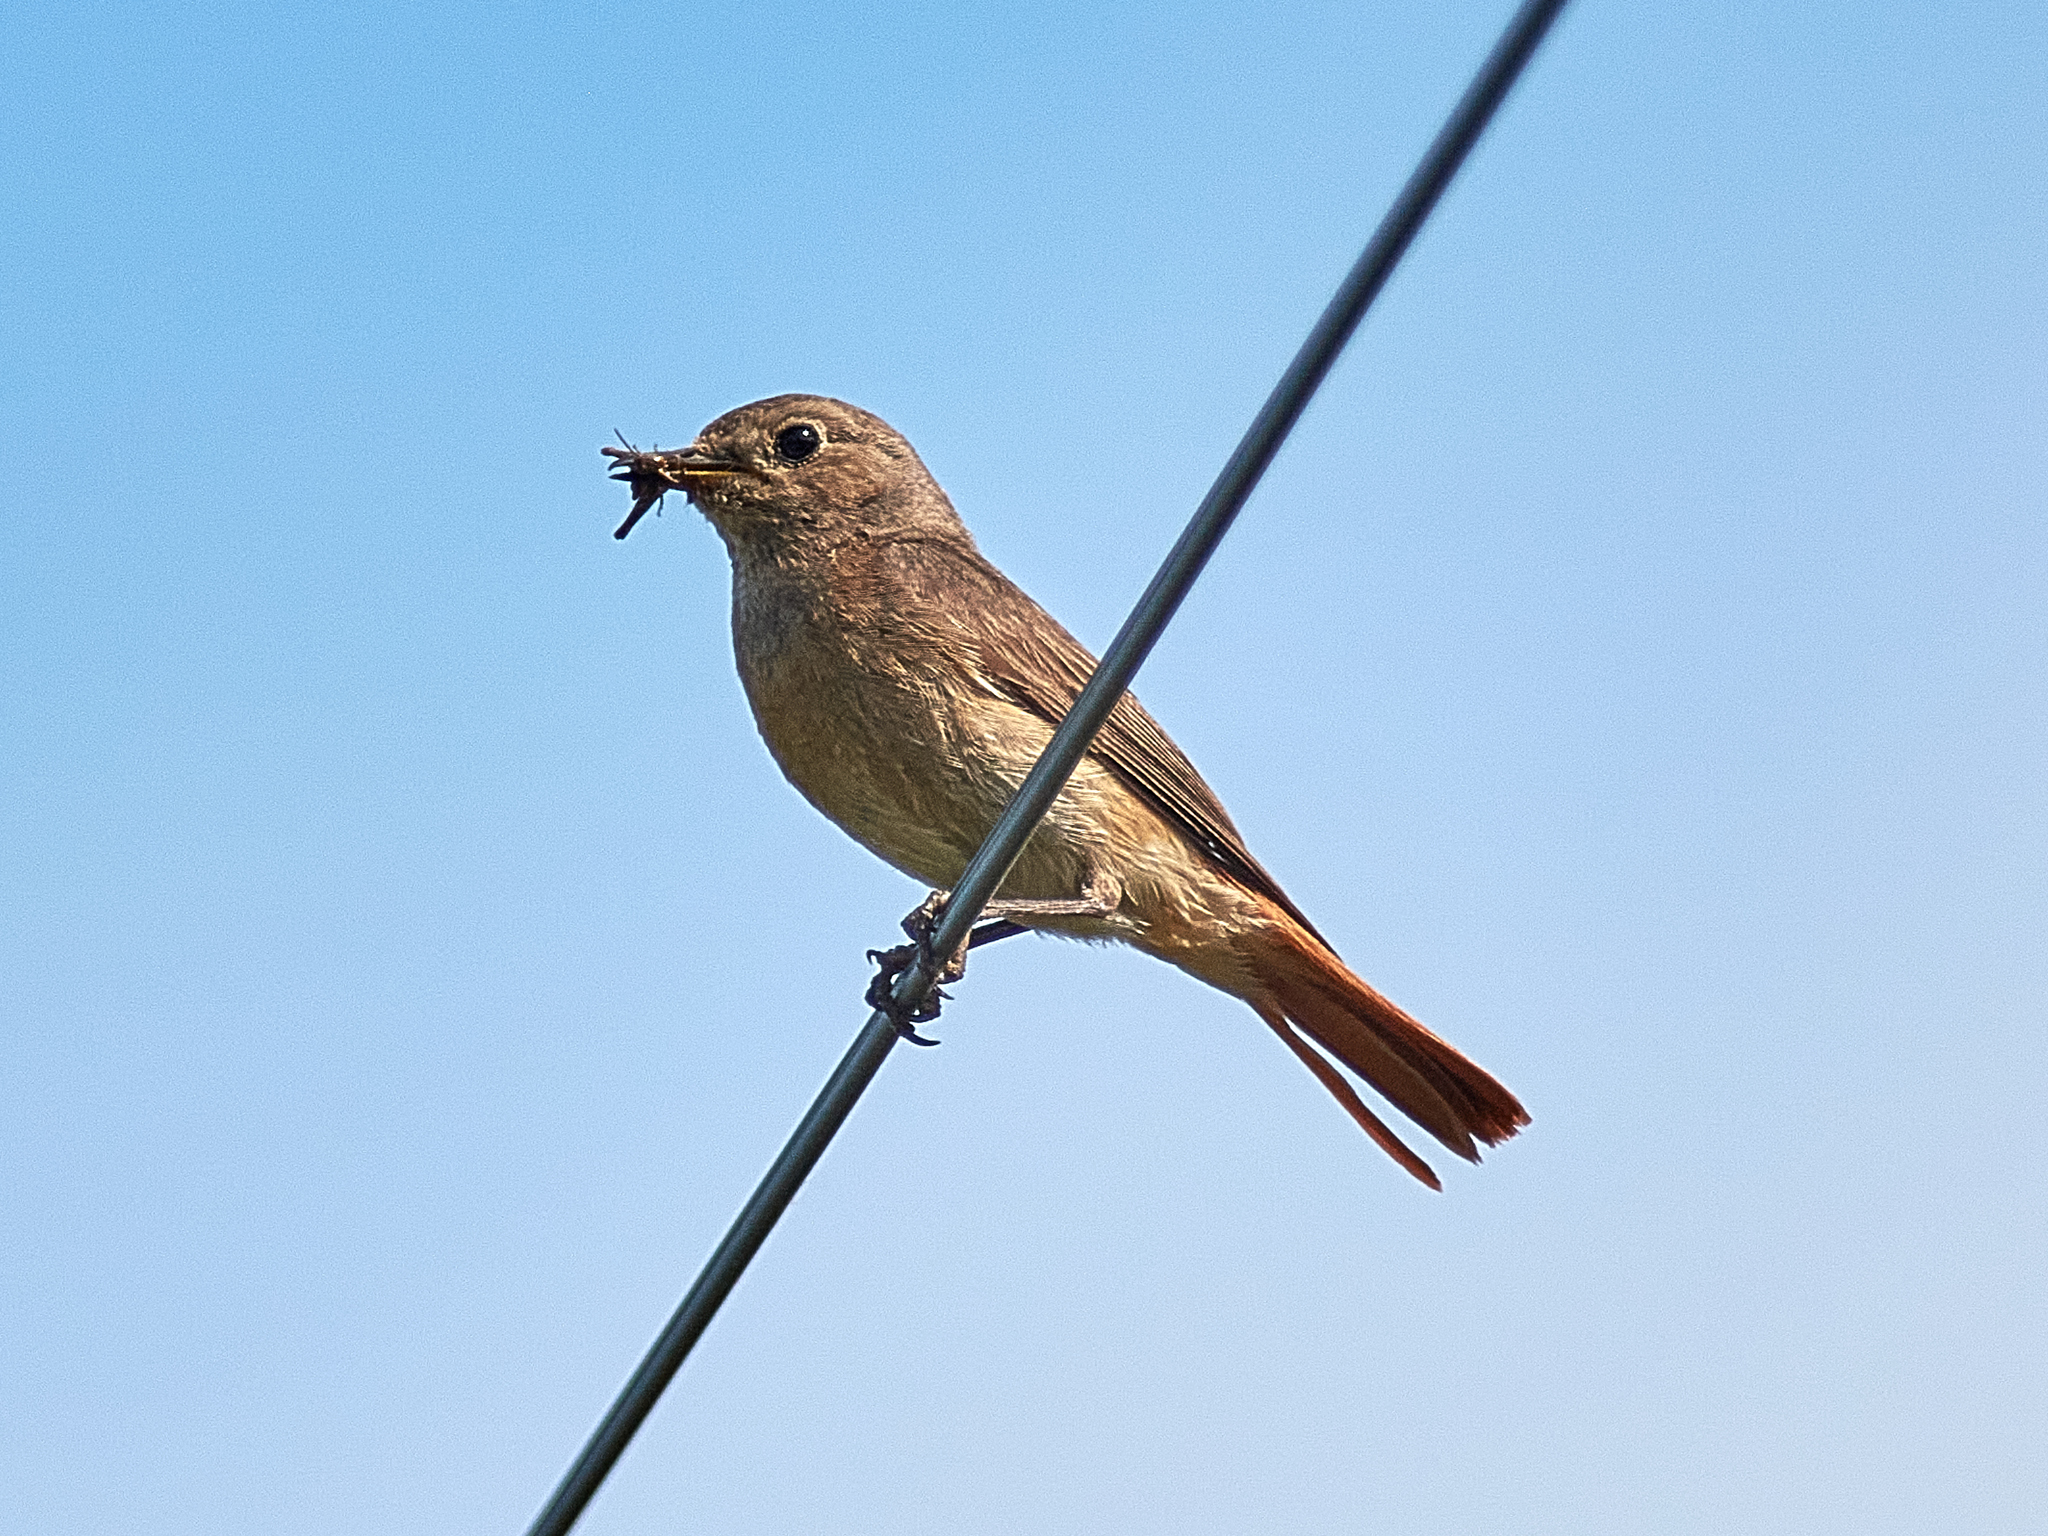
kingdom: Animalia
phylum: Chordata
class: Aves
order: Passeriformes
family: Muscicapidae
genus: Phoenicurus
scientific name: Phoenicurus phoenicurus
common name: Common redstart
